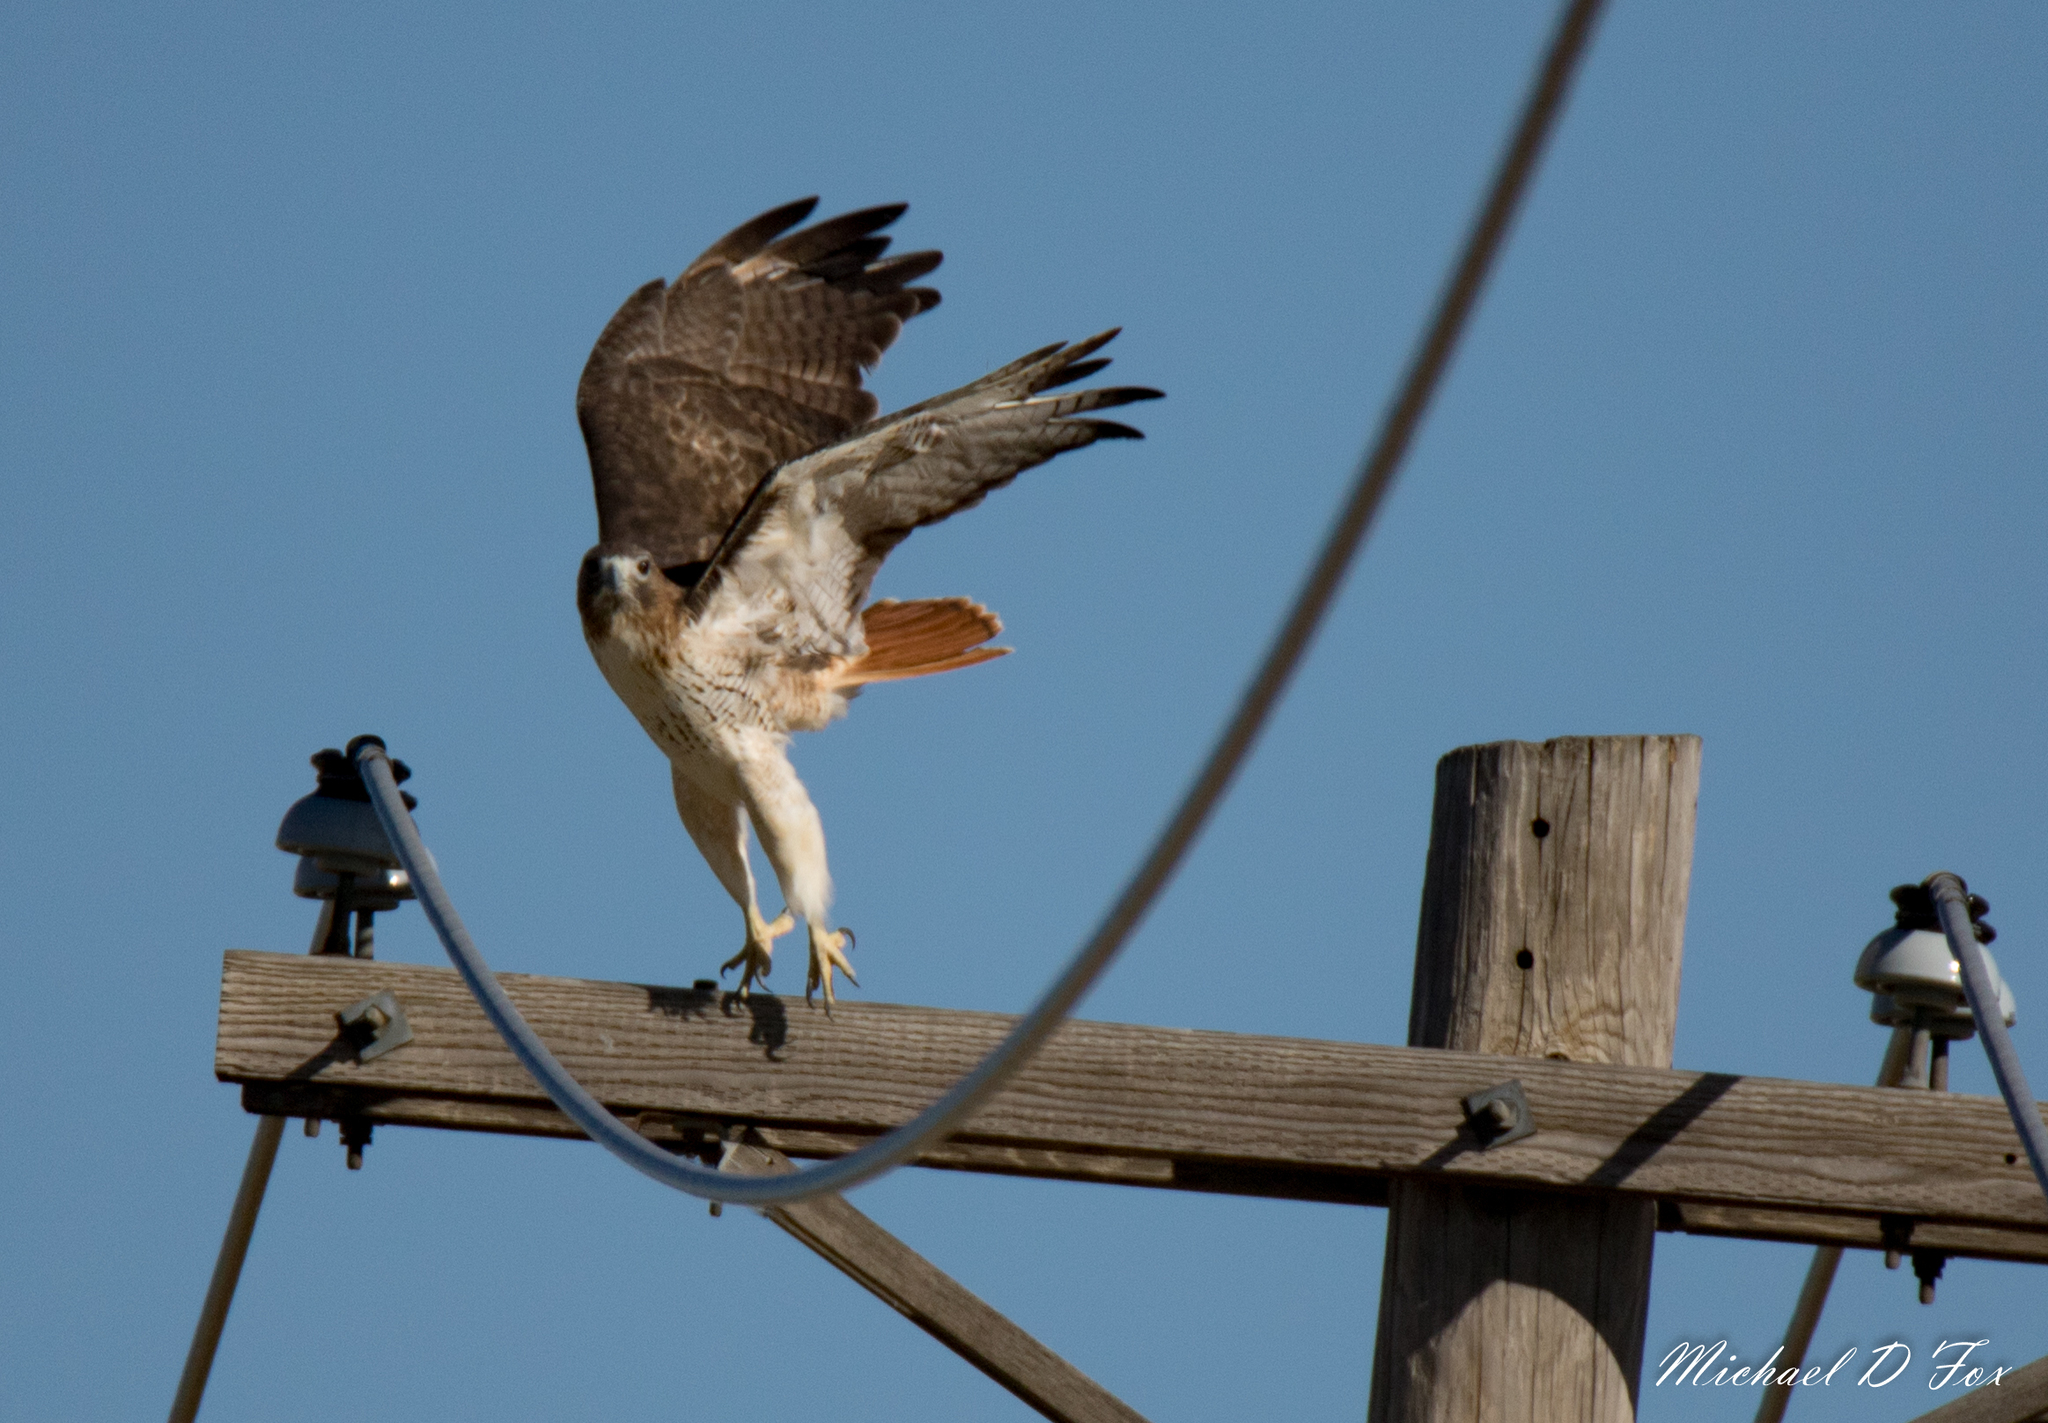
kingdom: Animalia
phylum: Chordata
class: Aves
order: Accipitriformes
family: Accipitridae
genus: Buteo
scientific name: Buteo jamaicensis
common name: Red-tailed hawk
